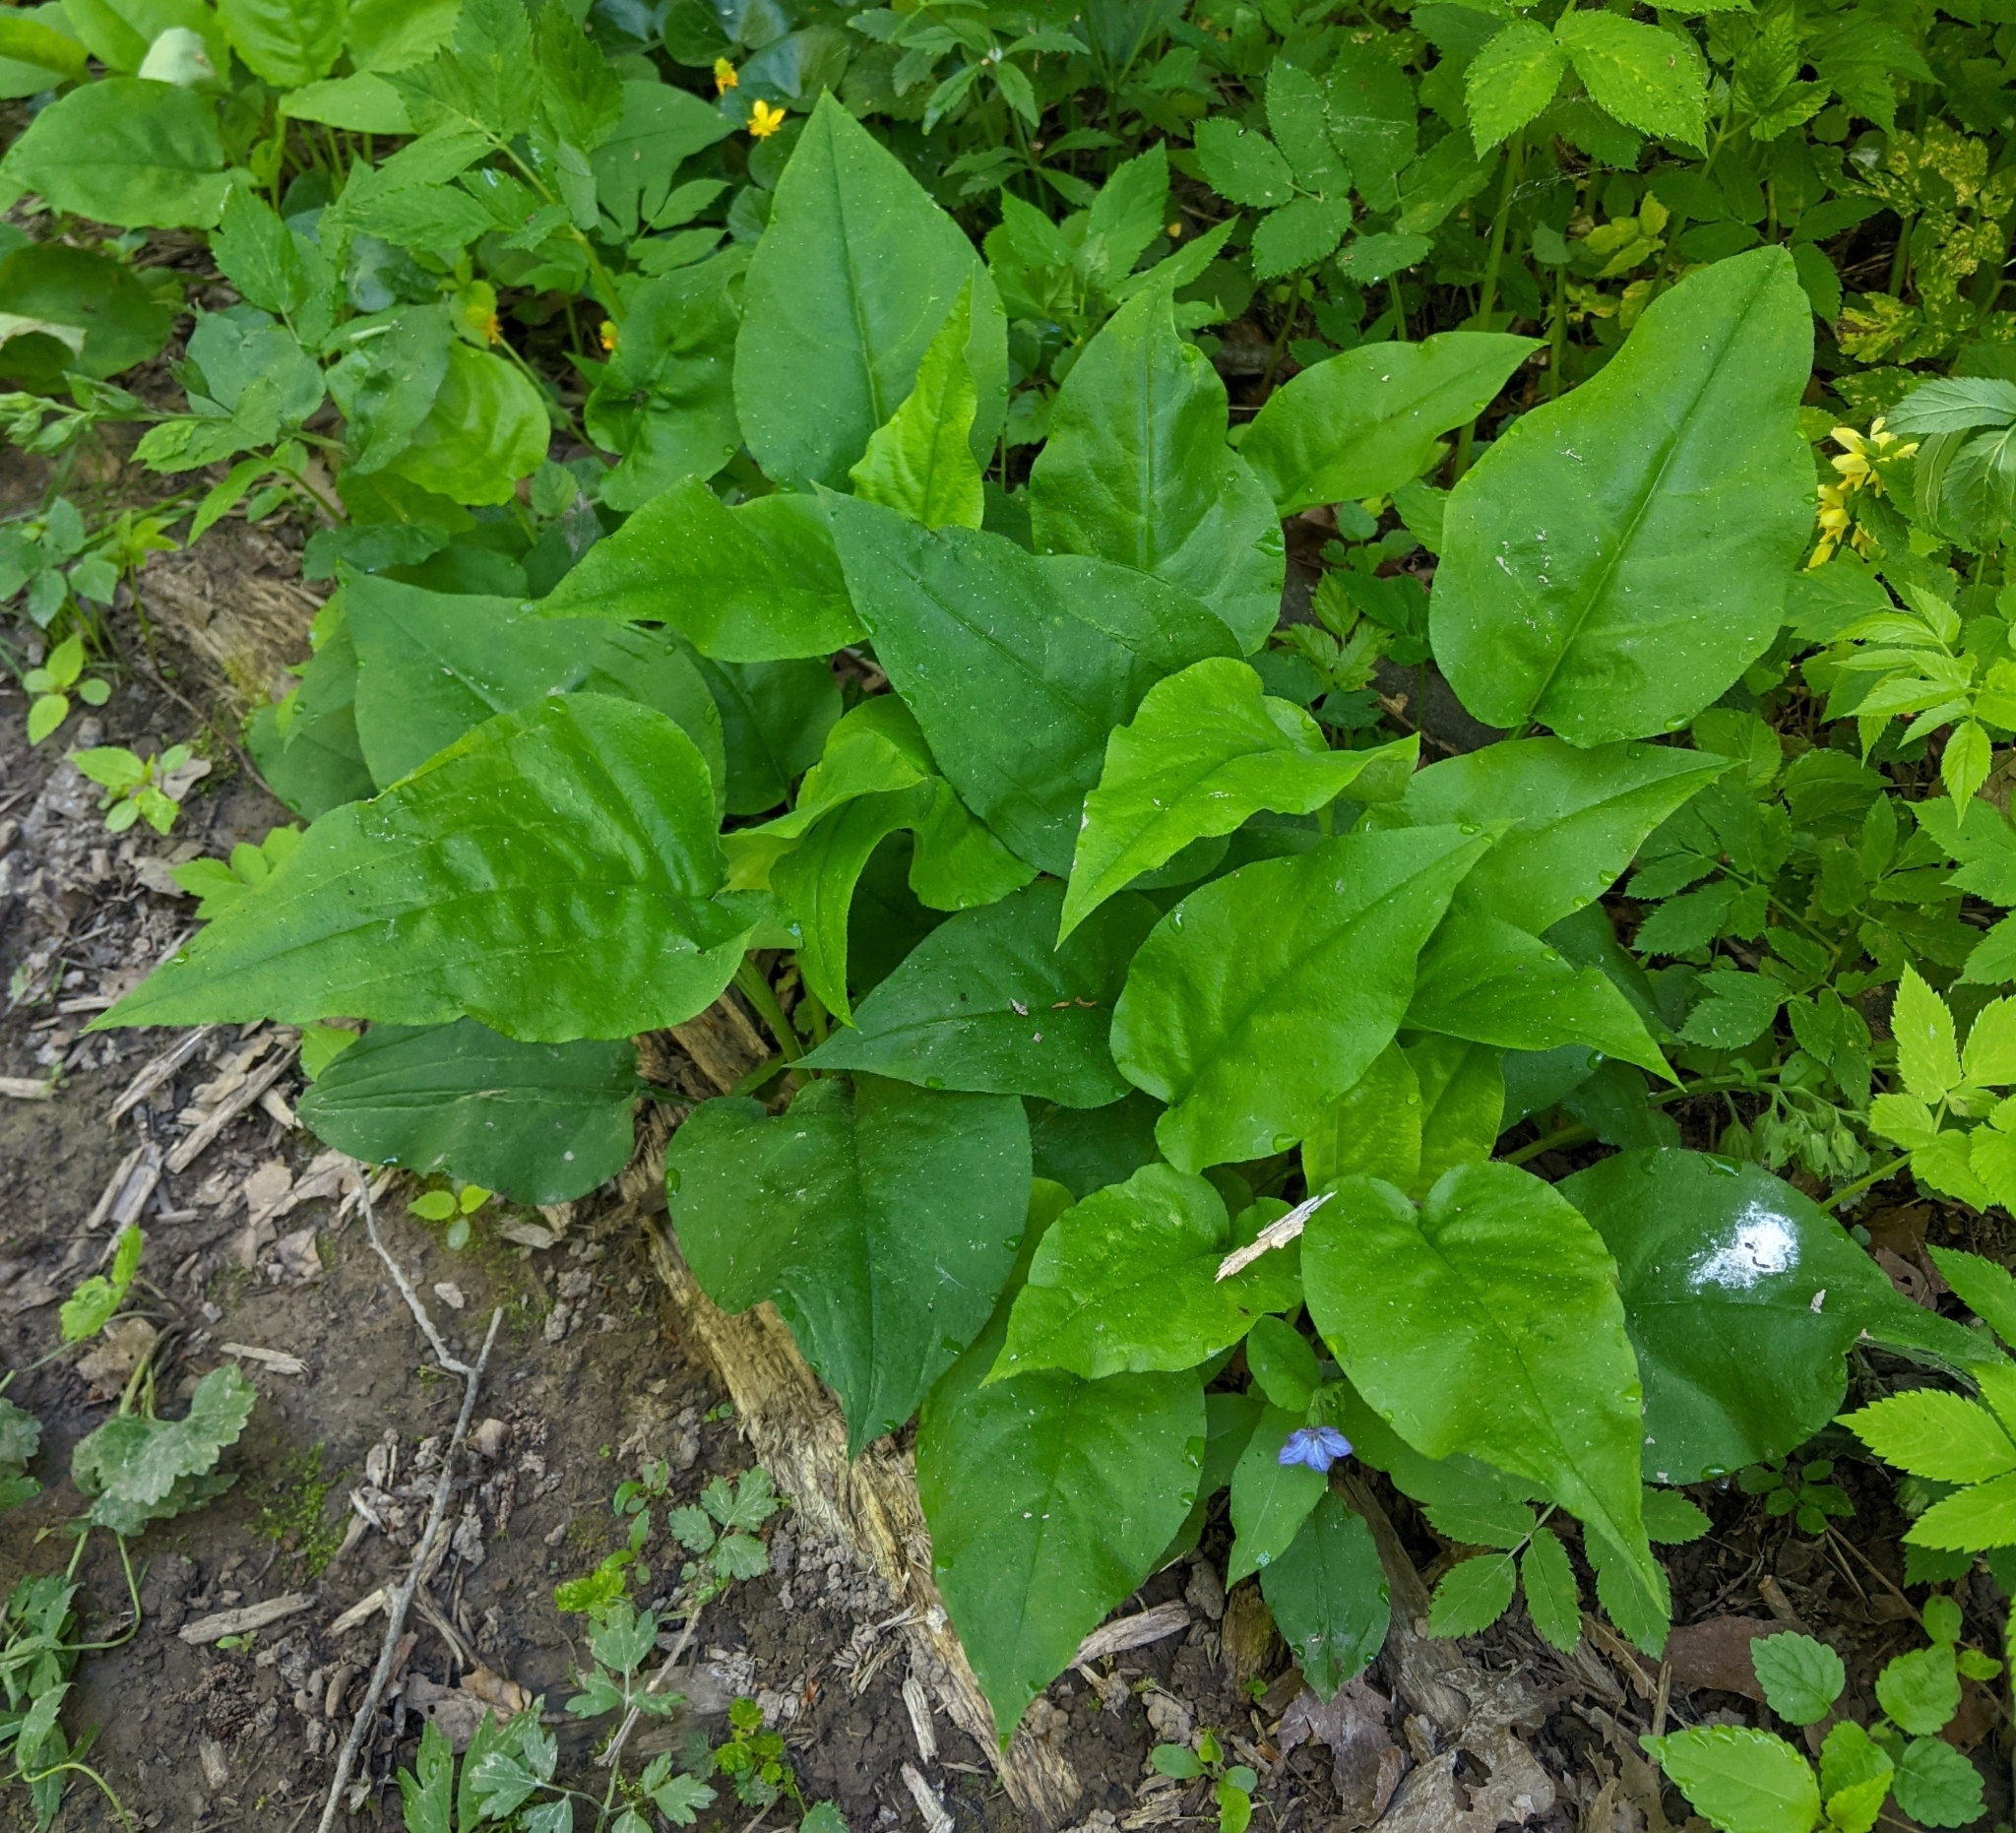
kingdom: Plantae
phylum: Tracheophyta
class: Magnoliopsida
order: Boraginales
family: Boraginaceae
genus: Pulmonaria
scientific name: Pulmonaria obscura
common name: Suffolk lungwort
